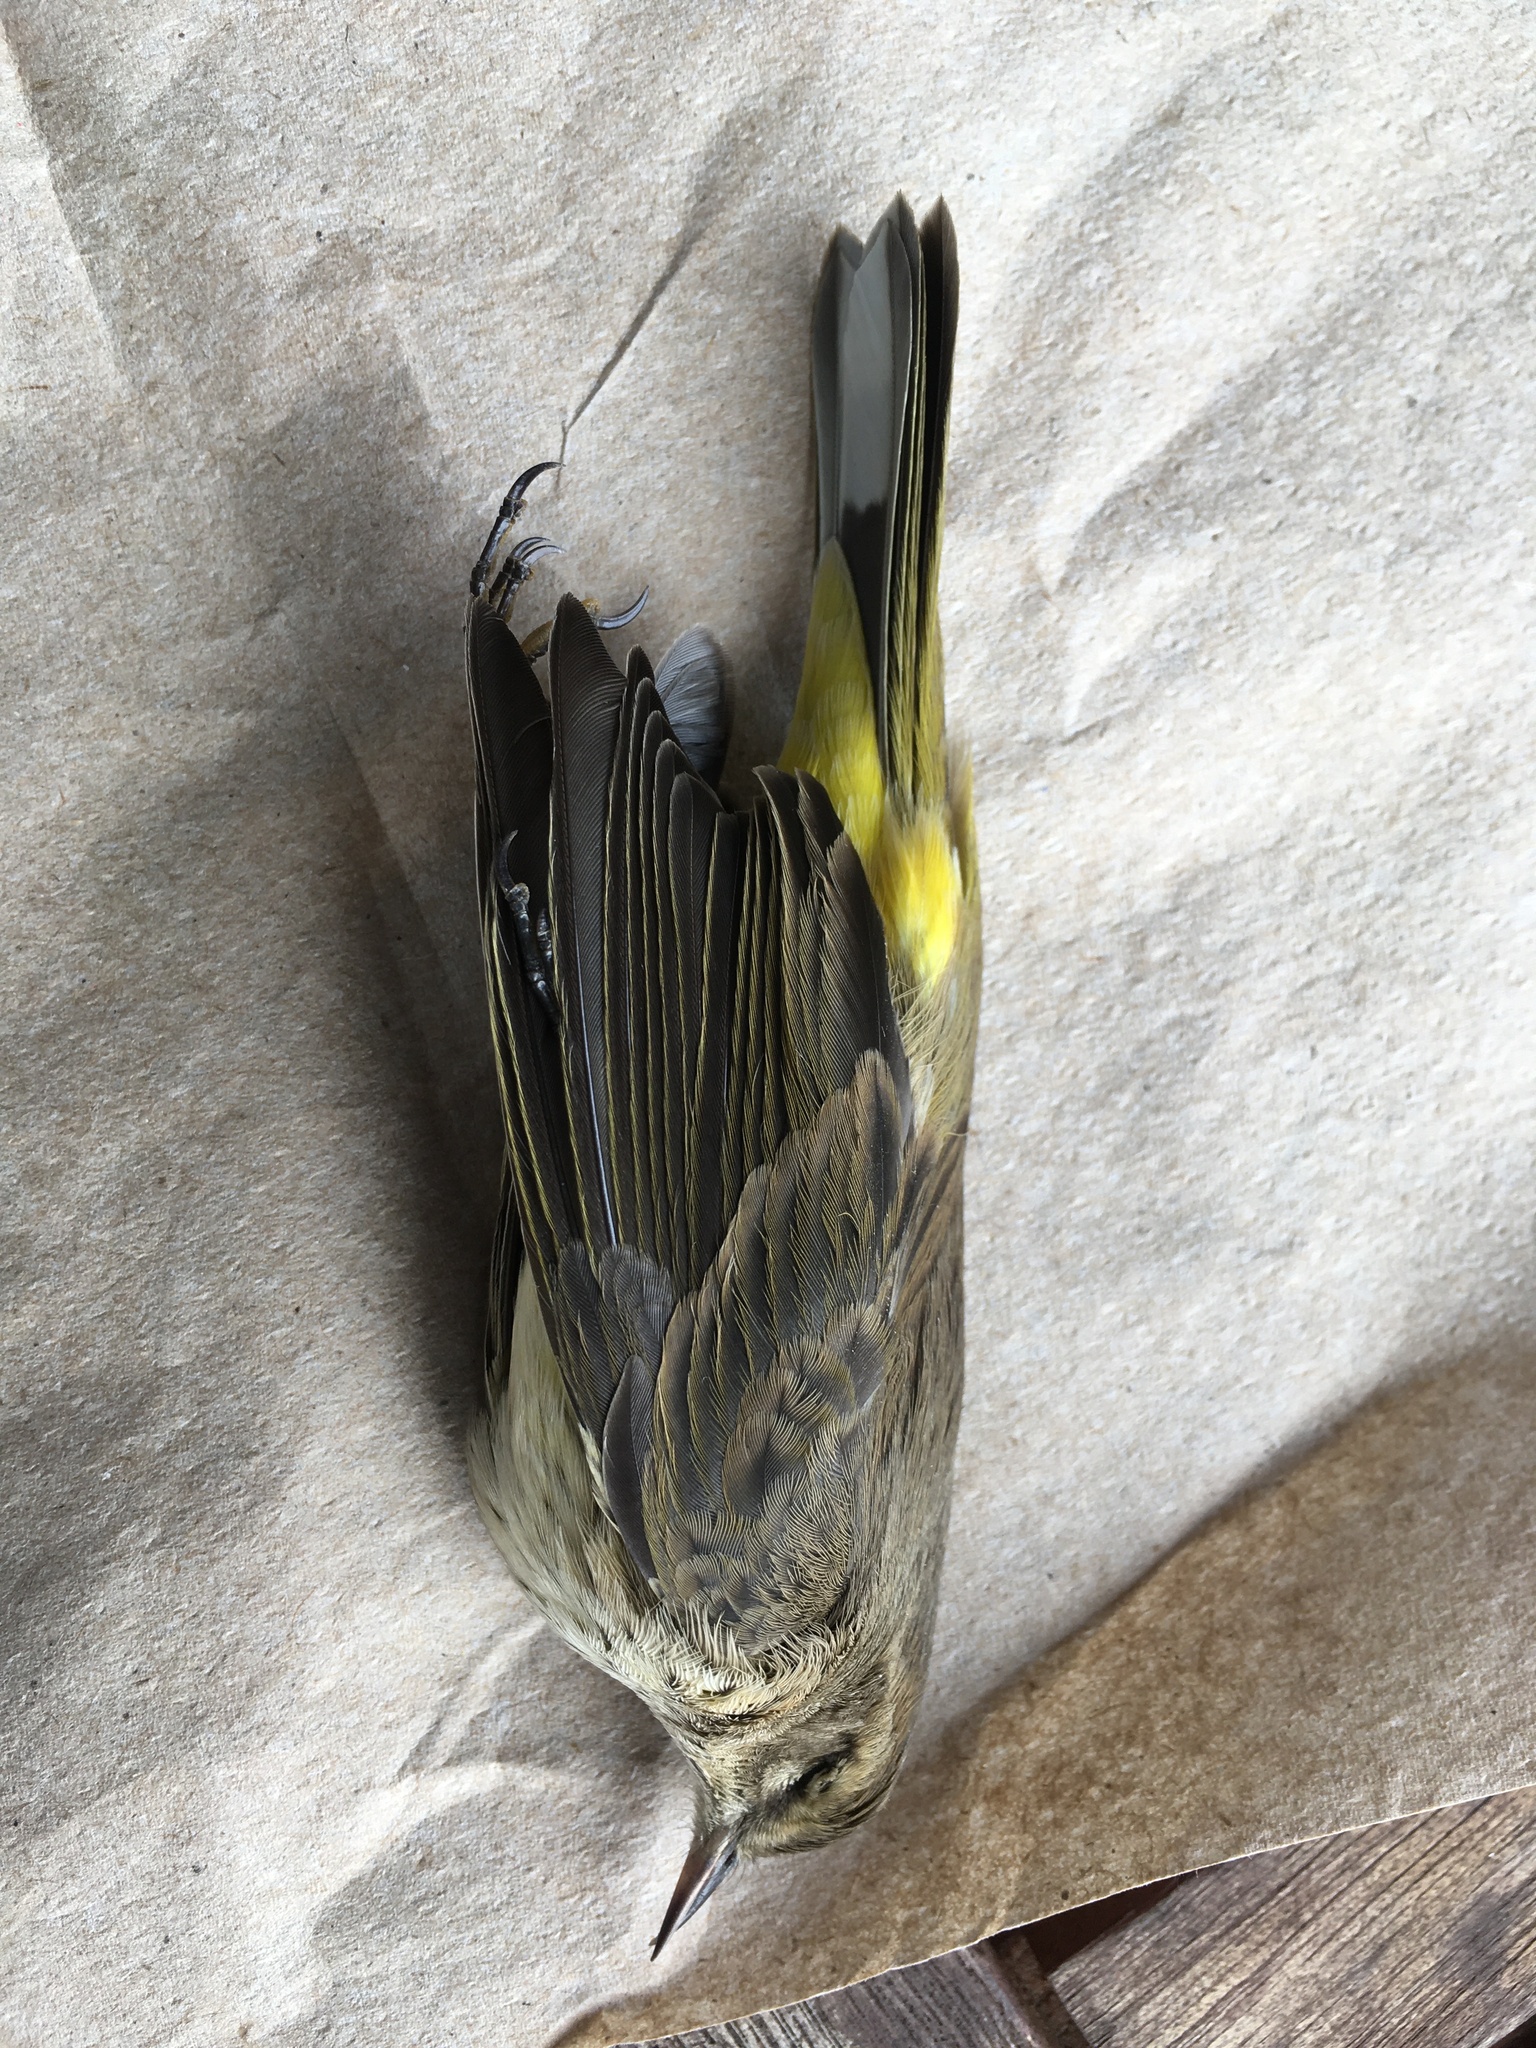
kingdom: Animalia
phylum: Chordata
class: Aves
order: Passeriformes
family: Parulidae
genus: Setophaga
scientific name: Setophaga palmarum
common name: Palm warbler
